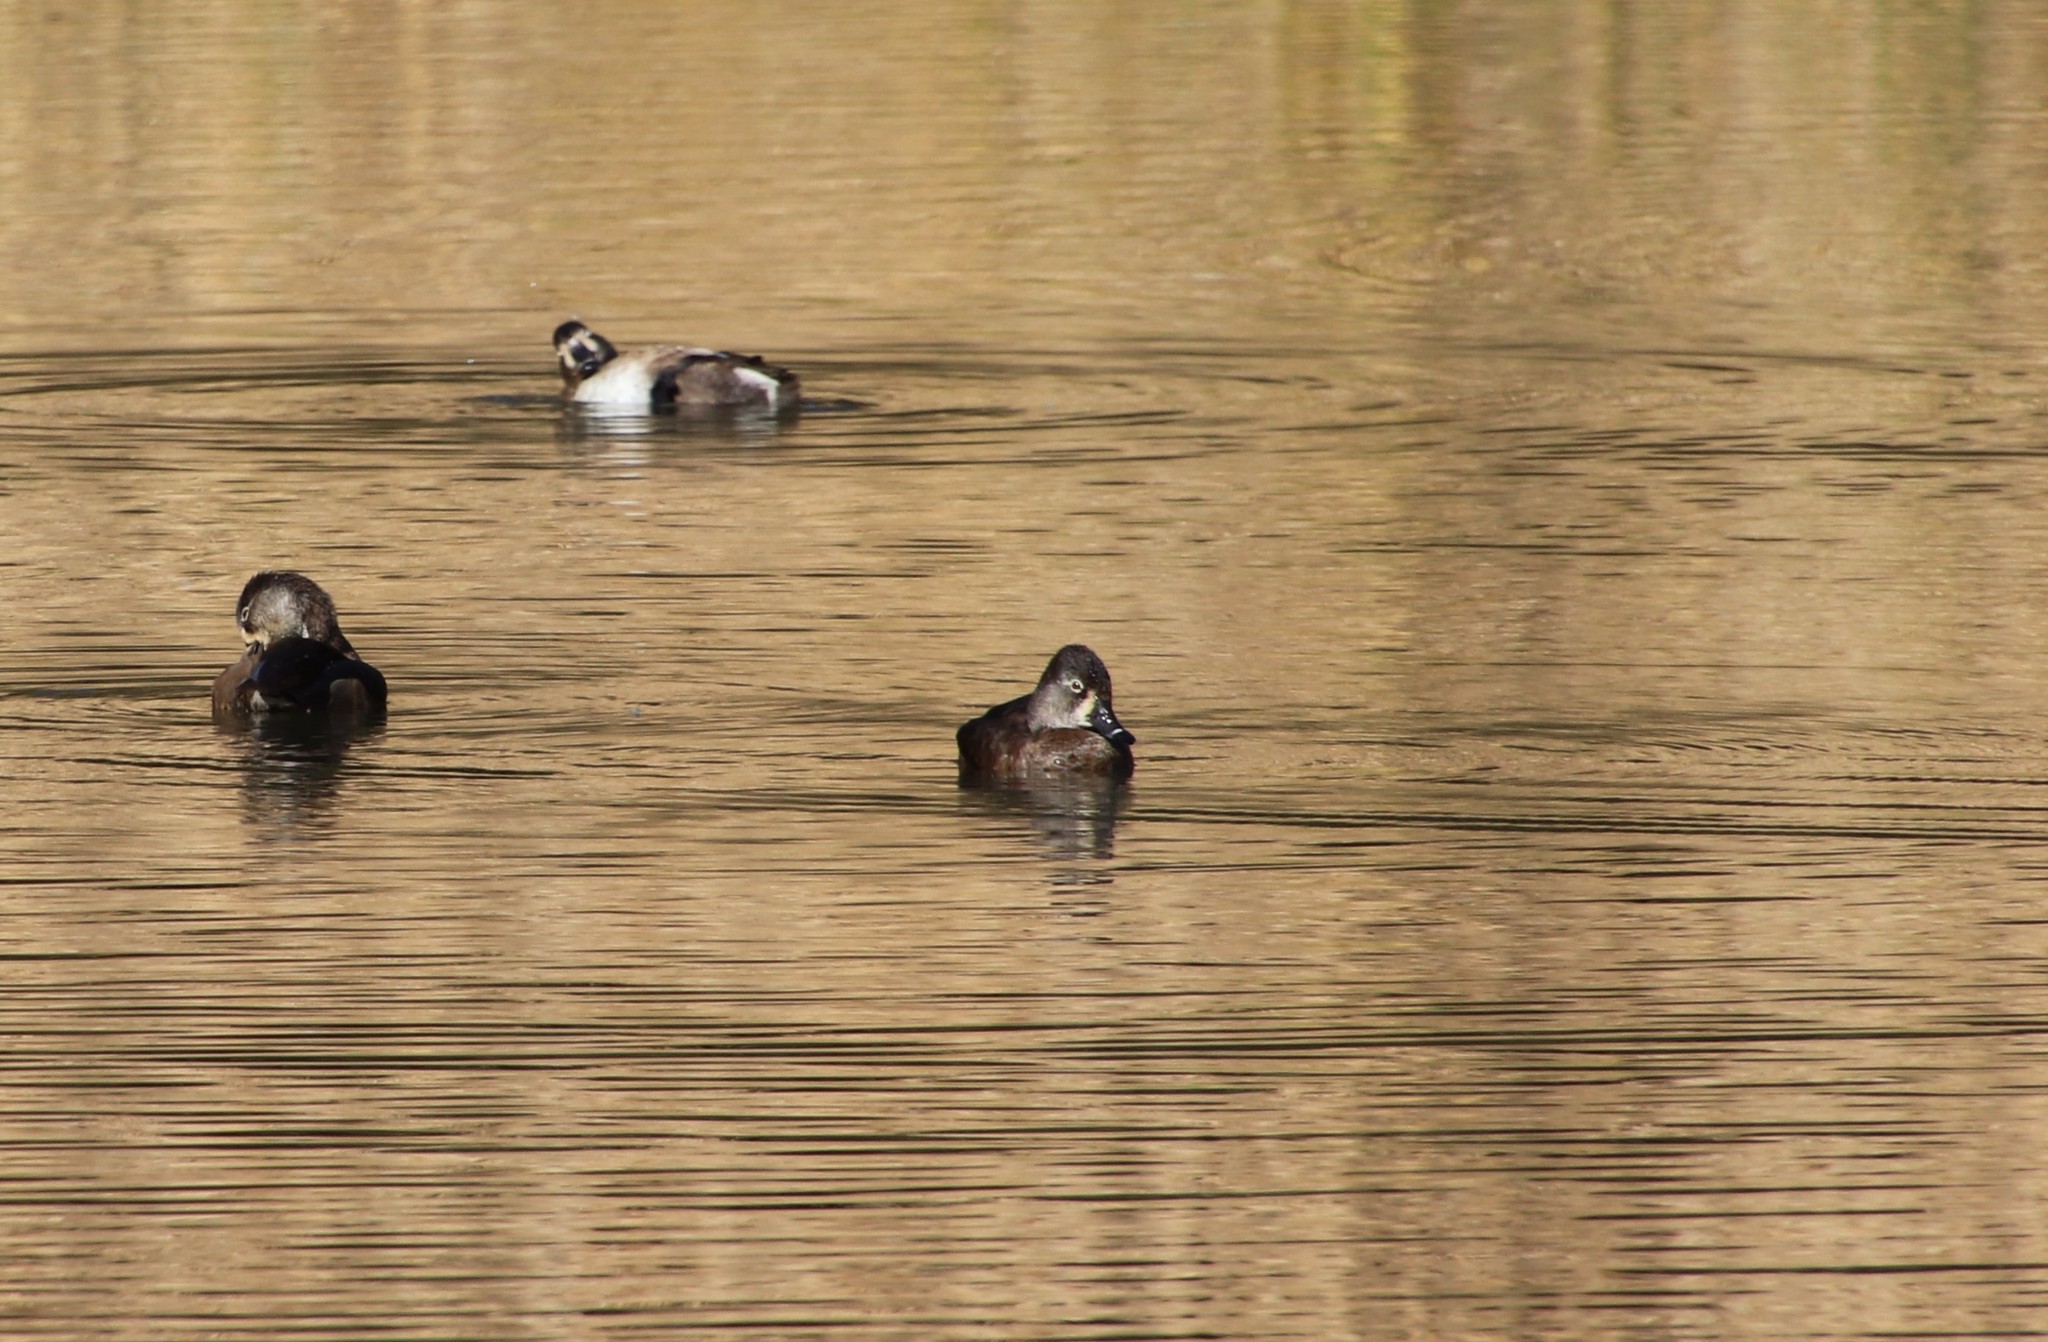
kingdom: Animalia
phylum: Chordata
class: Aves
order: Anseriformes
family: Anatidae
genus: Aythya
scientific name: Aythya collaris
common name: Ring-necked duck
